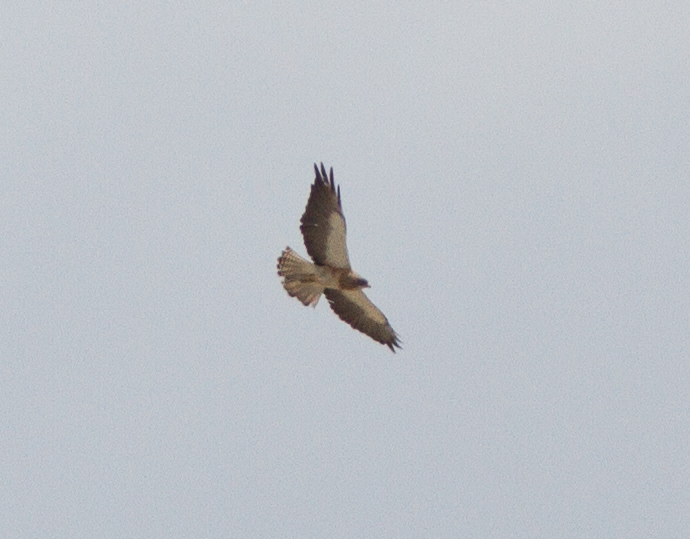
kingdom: Animalia
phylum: Chordata
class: Aves
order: Accipitriformes
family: Accipitridae
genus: Buteo
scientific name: Buteo swainsoni
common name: Swainson's hawk
